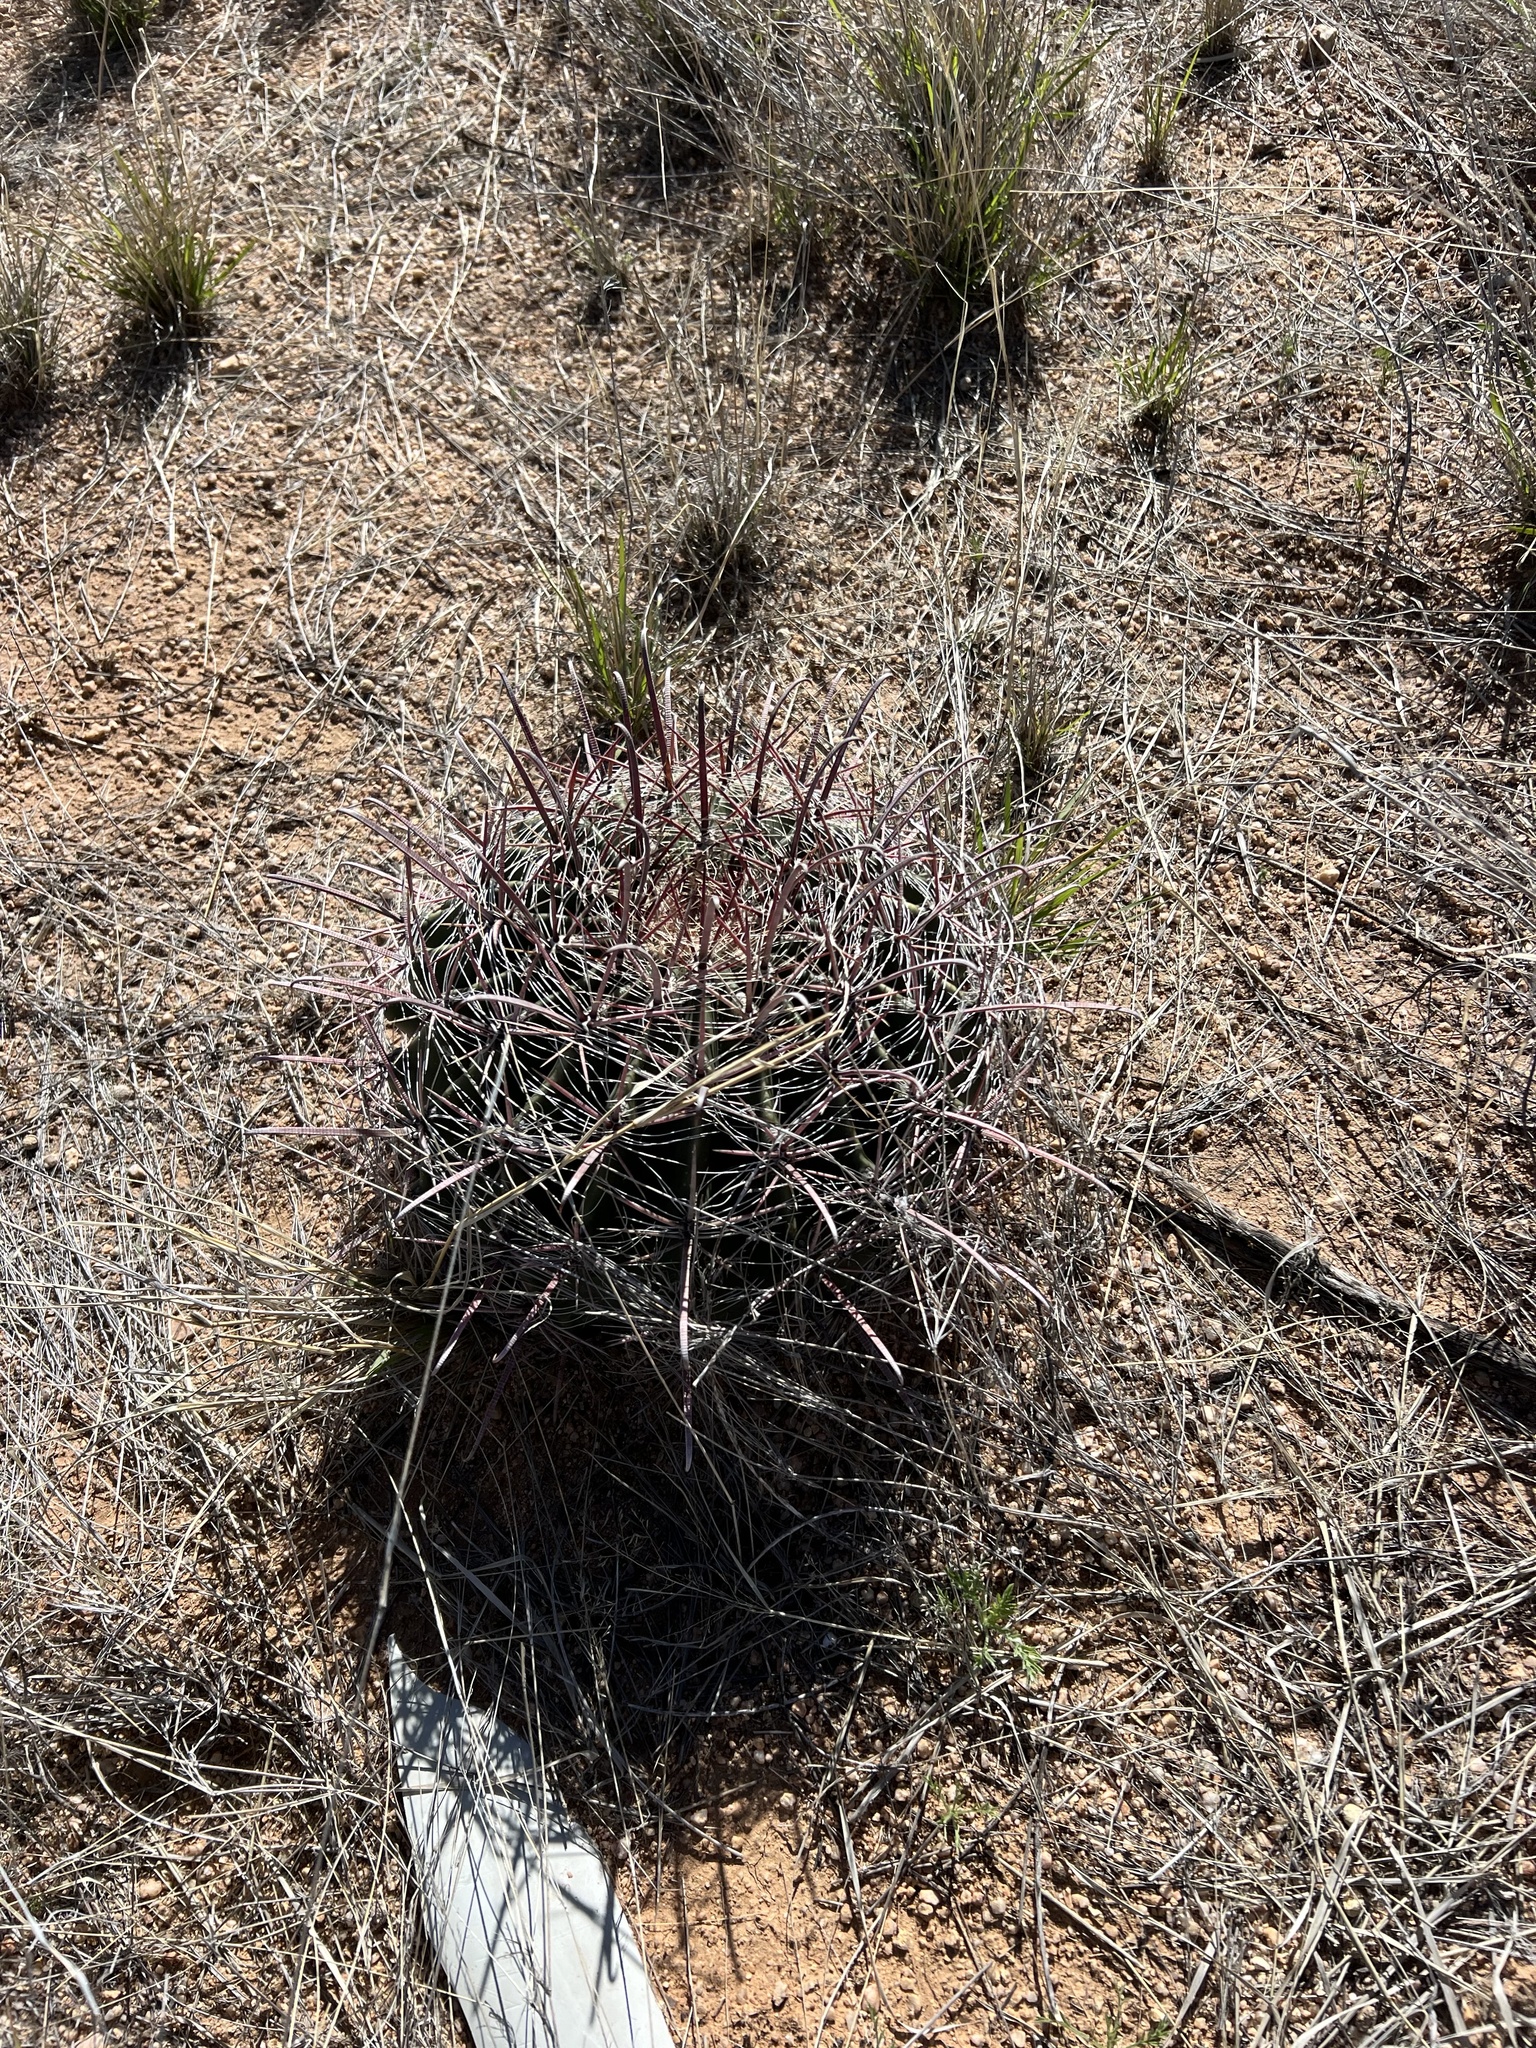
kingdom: Plantae
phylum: Tracheophyta
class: Magnoliopsida
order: Caryophyllales
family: Cactaceae
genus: Ferocactus
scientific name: Ferocactus wislizeni
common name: Candy barrel cactus
